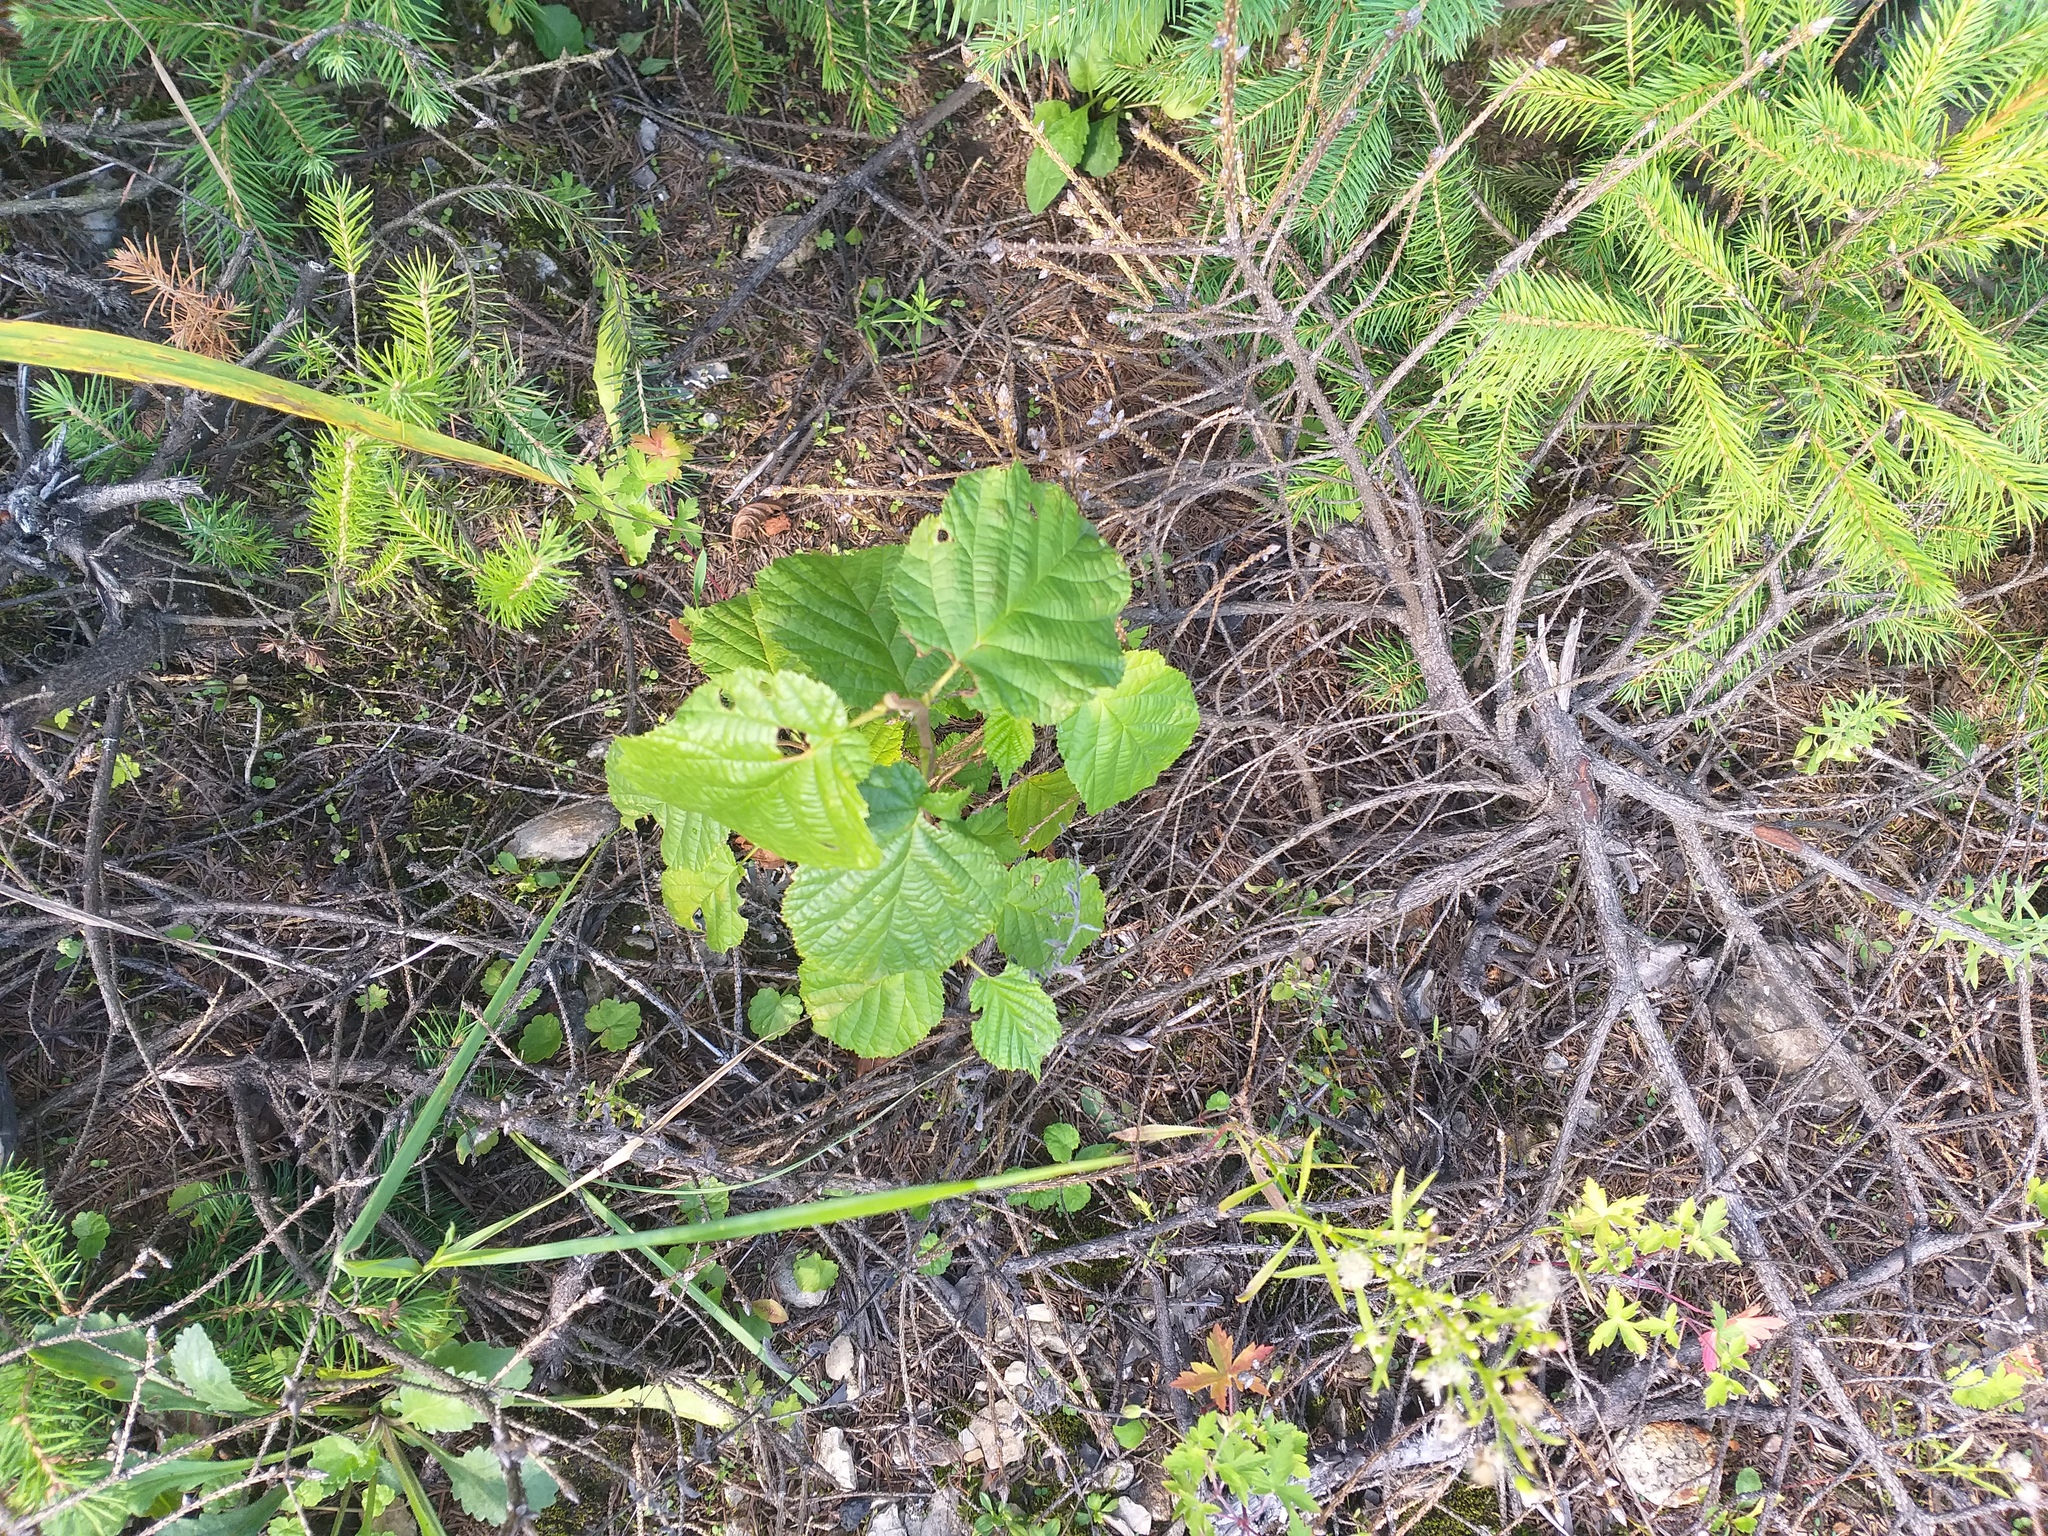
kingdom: Plantae
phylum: Tracheophyta
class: Magnoliopsida
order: Fagales
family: Betulaceae
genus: Corylus
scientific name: Corylus avellana
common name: European hazel
